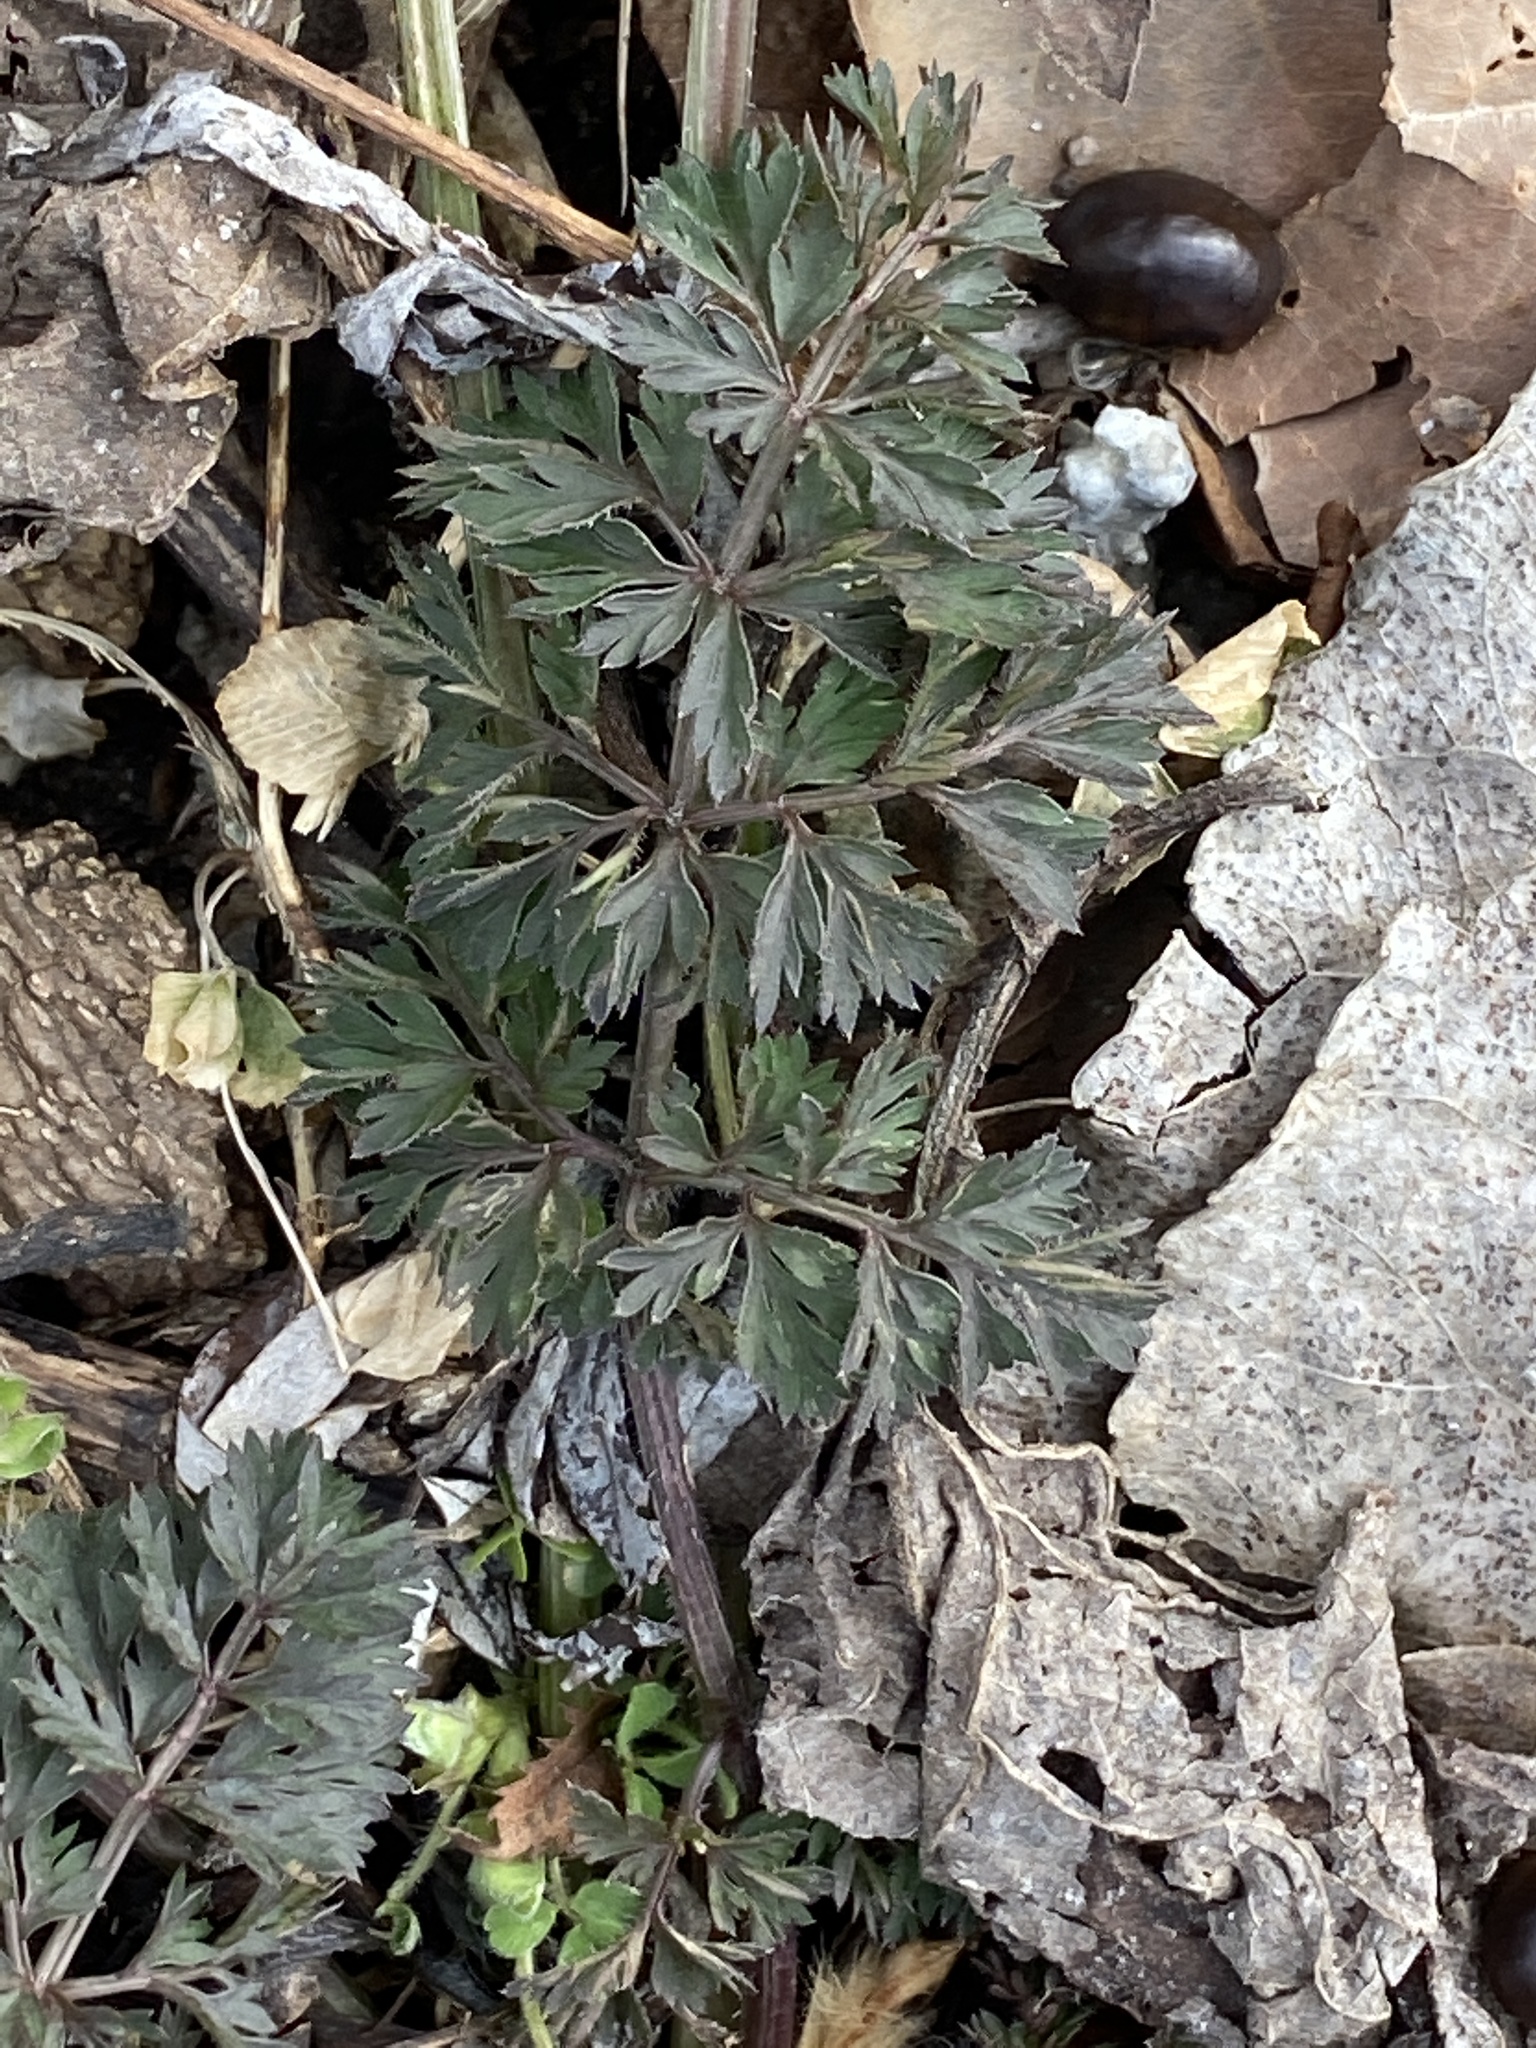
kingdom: Plantae
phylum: Tracheophyta
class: Magnoliopsida
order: Apiales
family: Apiaceae
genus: Daucus
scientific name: Daucus carota
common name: Wild carrot
